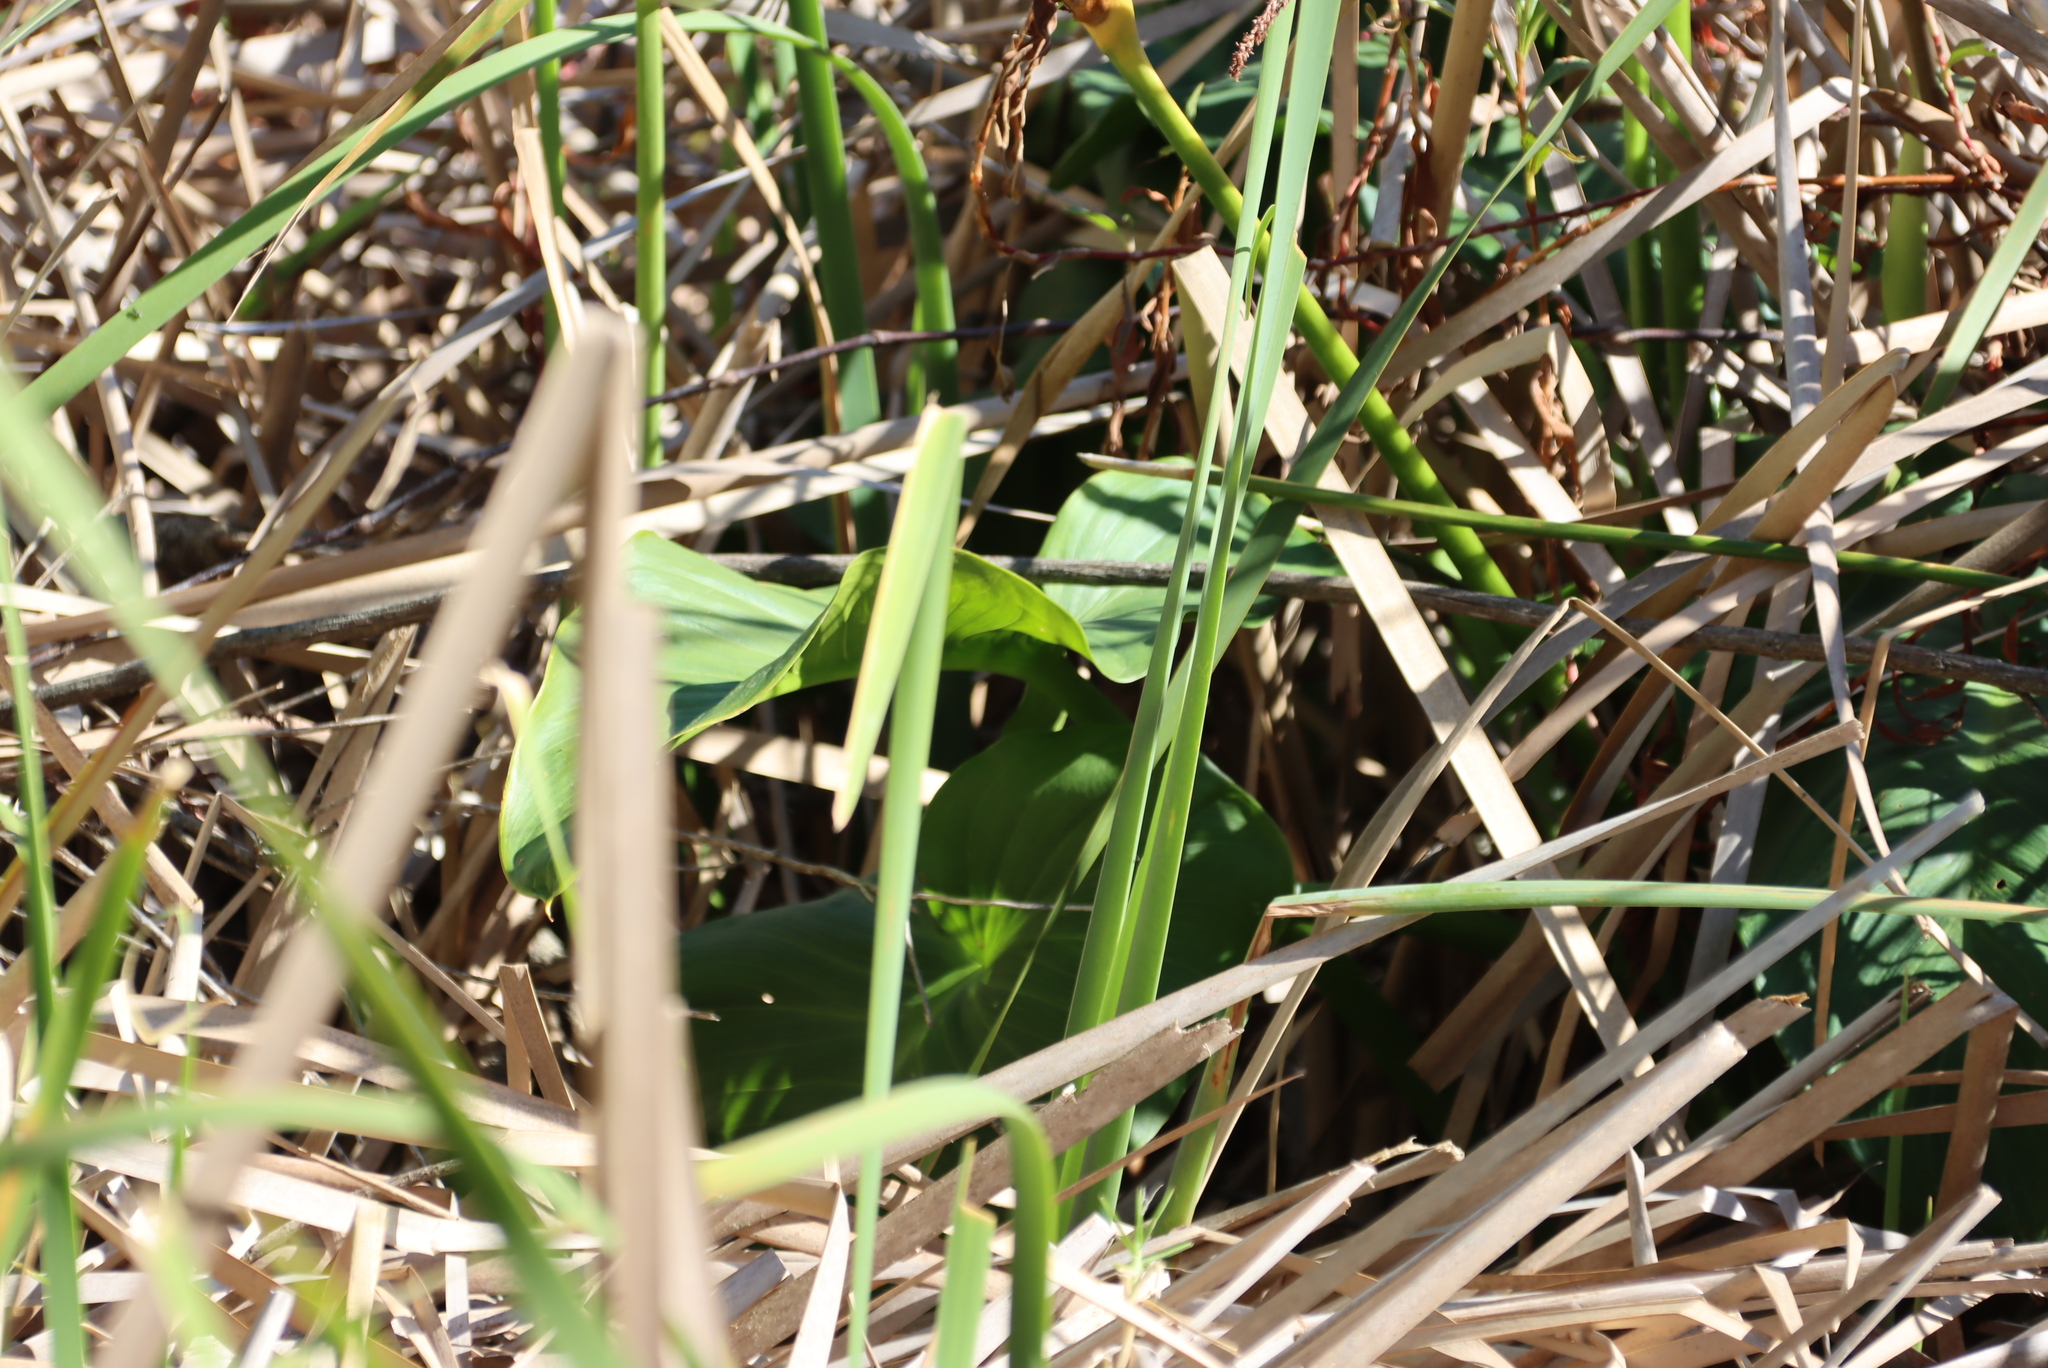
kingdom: Plantae
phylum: Tracheophyta
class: Liliopsida
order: Alismatales
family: Araceae
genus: Zantedeschia
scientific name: Zantedeschia aethiopica
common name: Altar-lily
